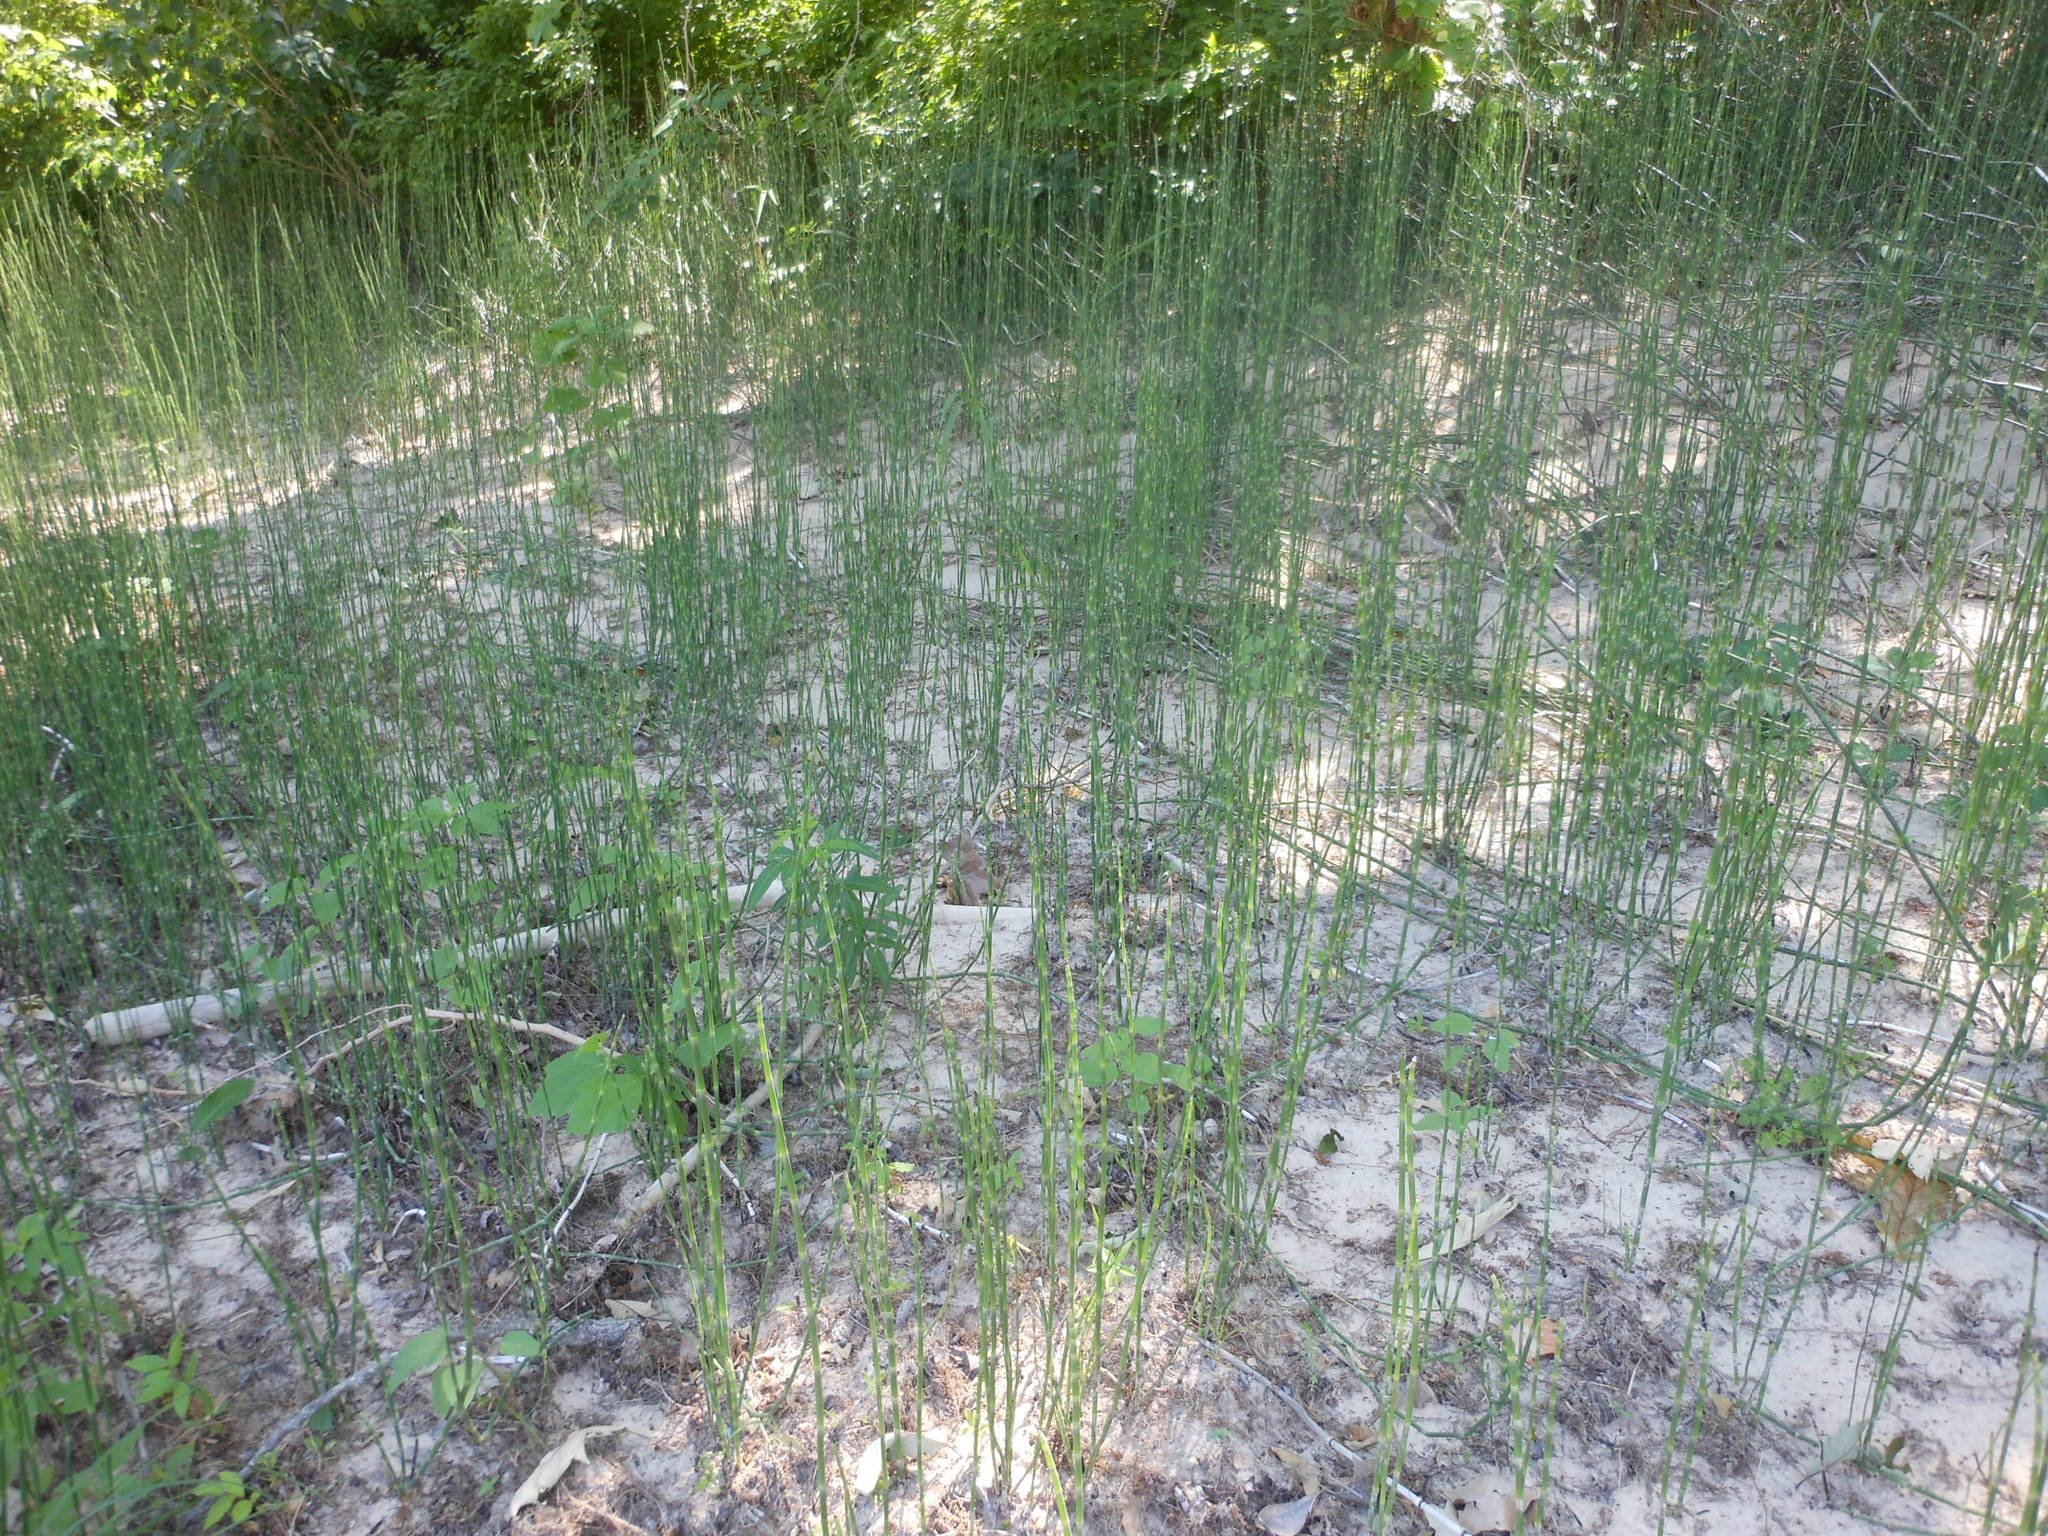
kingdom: Plantae
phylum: Tracheophyta
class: Polypodiopsida
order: Equisetales
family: Equisetaceae
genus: Equisetum
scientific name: Equisetum hyemale
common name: Rough horsetail
